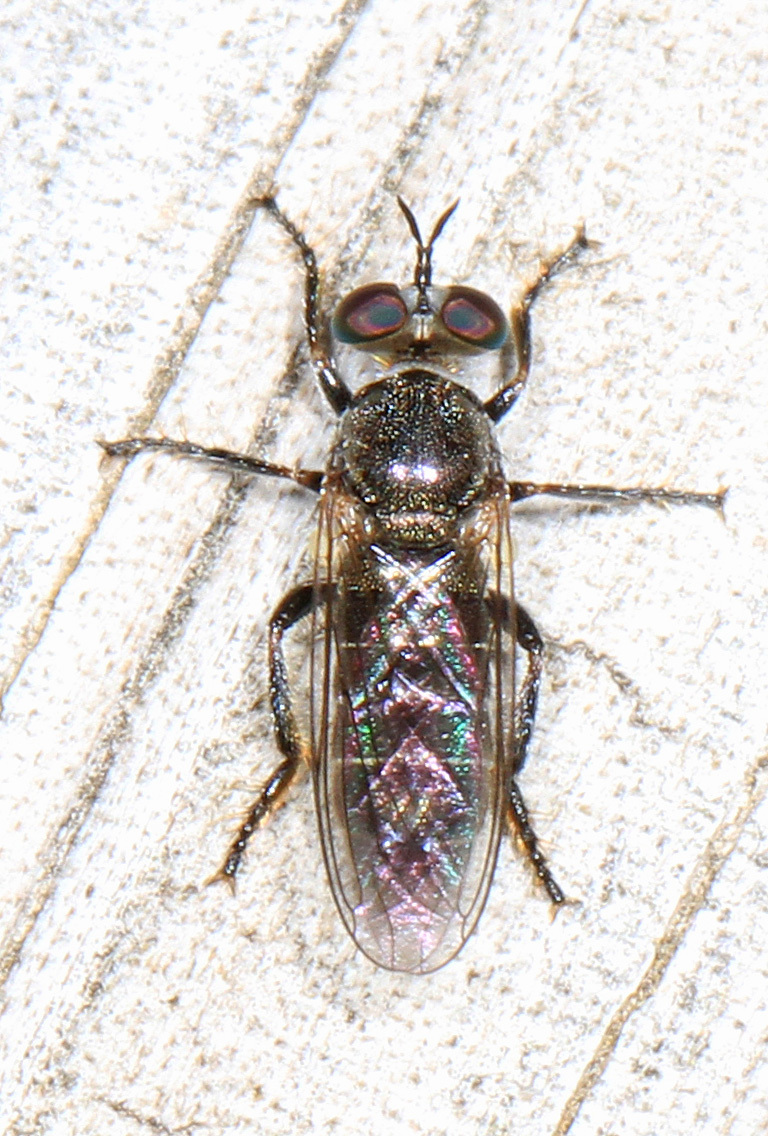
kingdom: Animalia
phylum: Arthropoda
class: Insecta
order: Diptera
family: Asilidae
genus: Atomosia
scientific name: Atomosia puella
